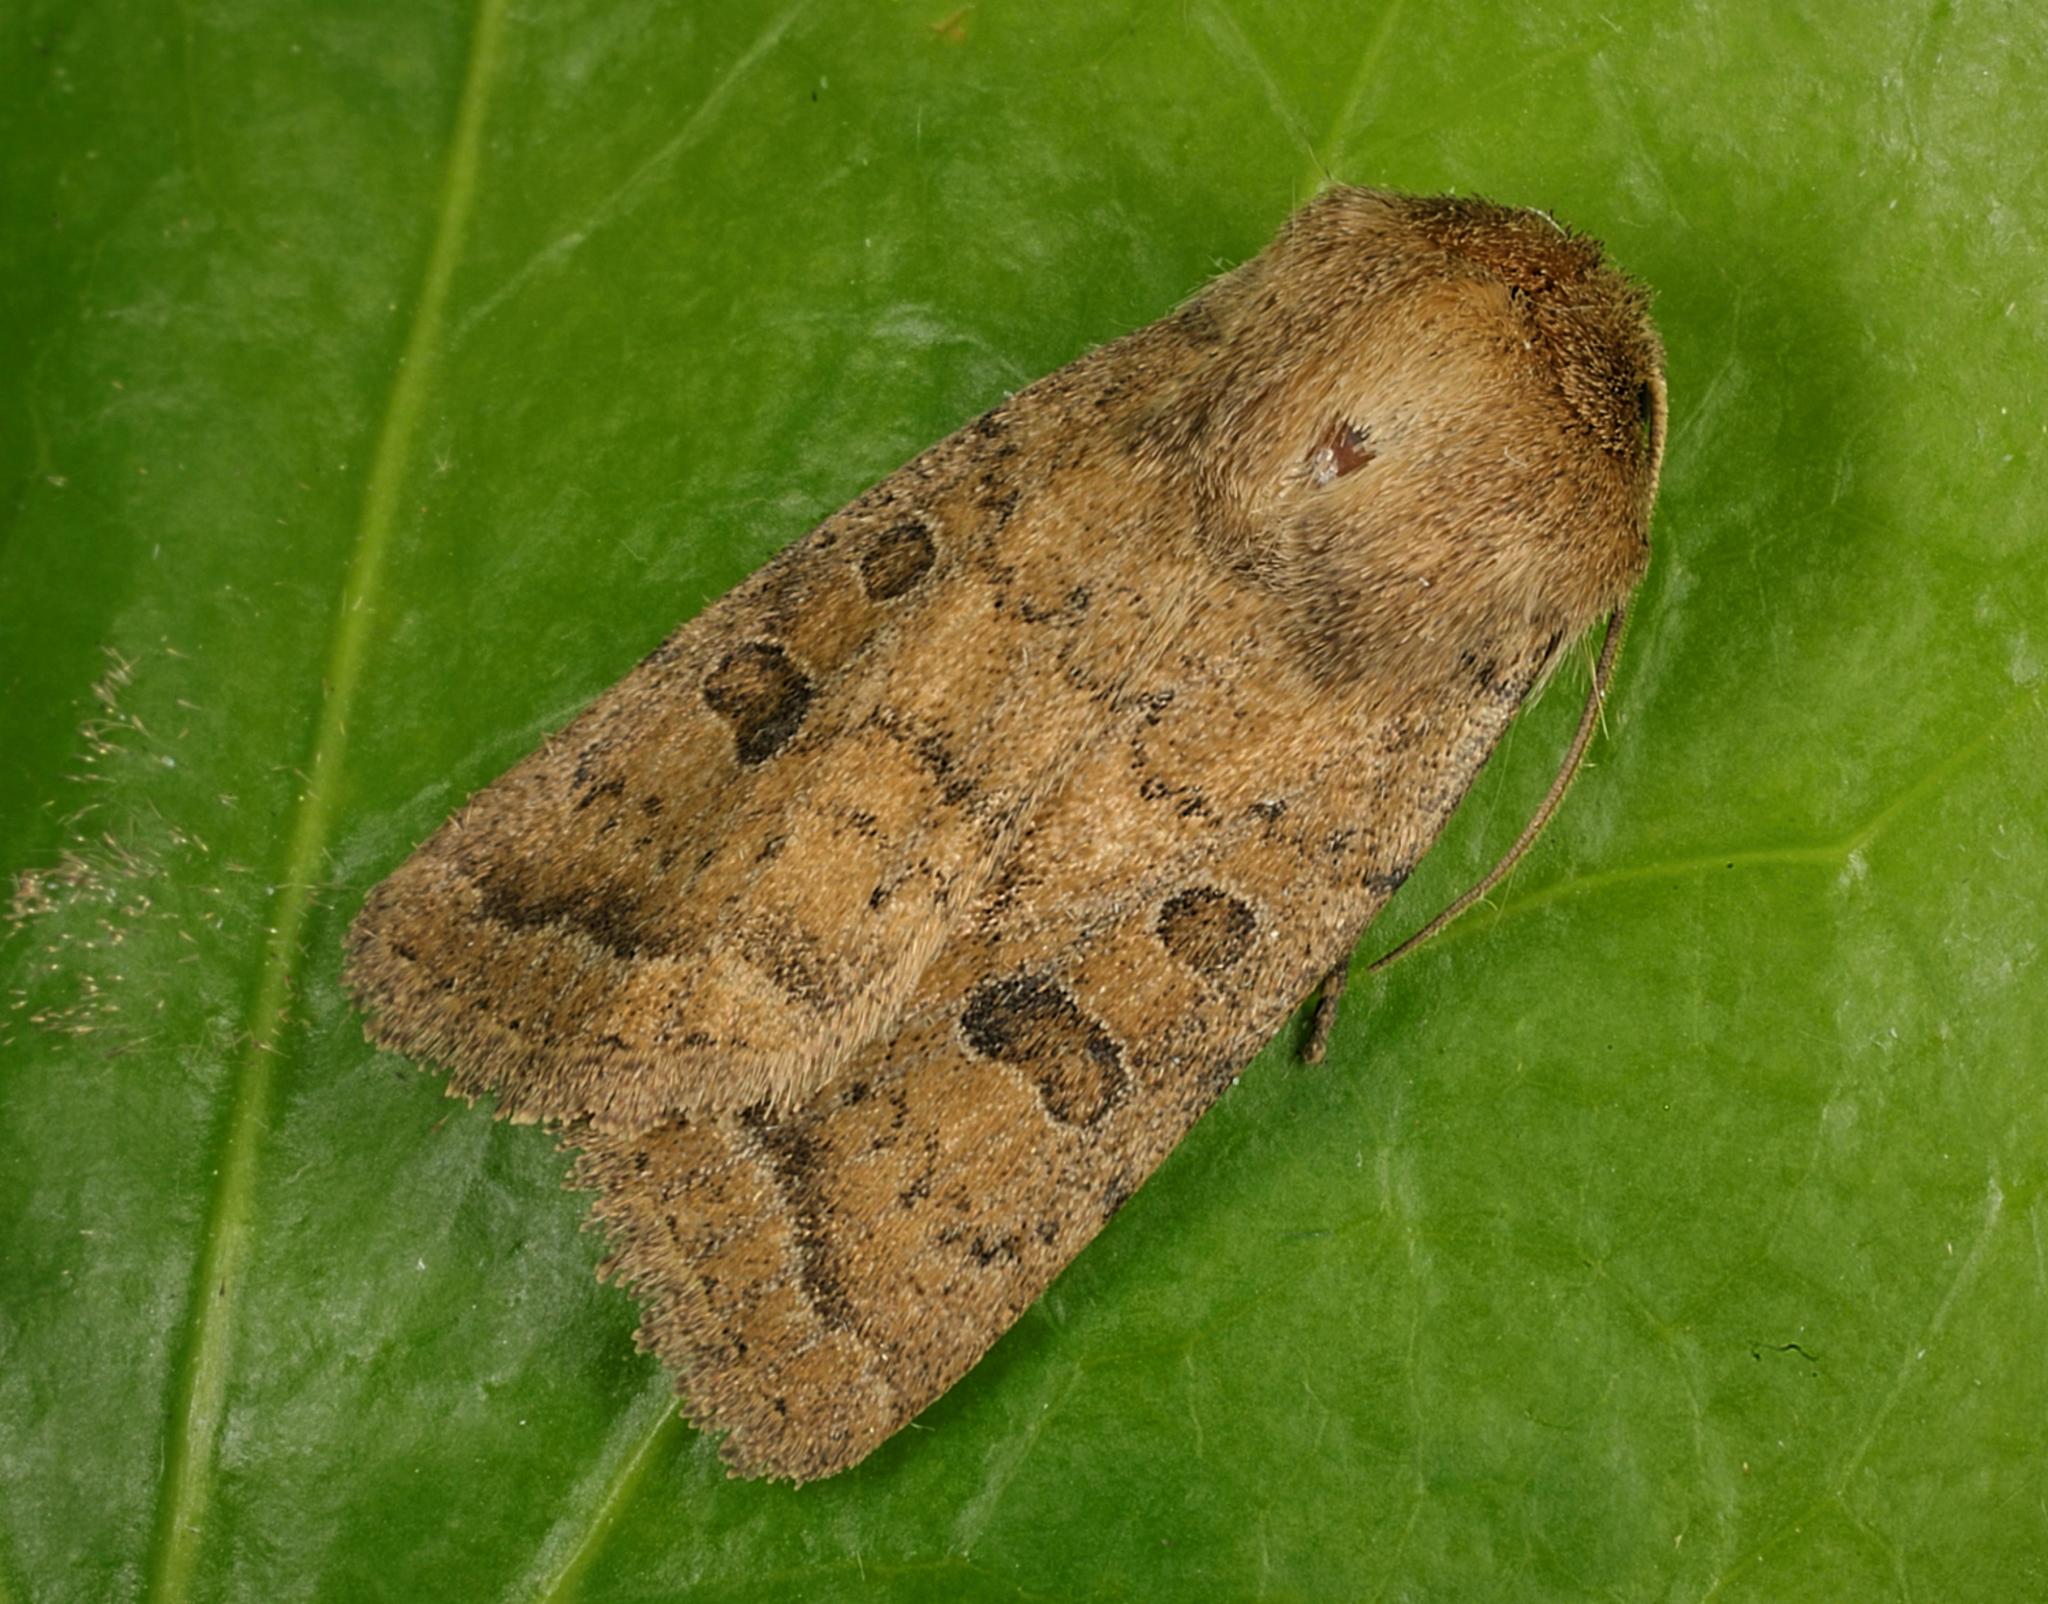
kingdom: Animalia
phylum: Arthropoda
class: Insecta
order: Lepidoptera
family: Noctuidae
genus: Hoplodrina
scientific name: Hoplodrina octogenaria
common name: Uncertain
